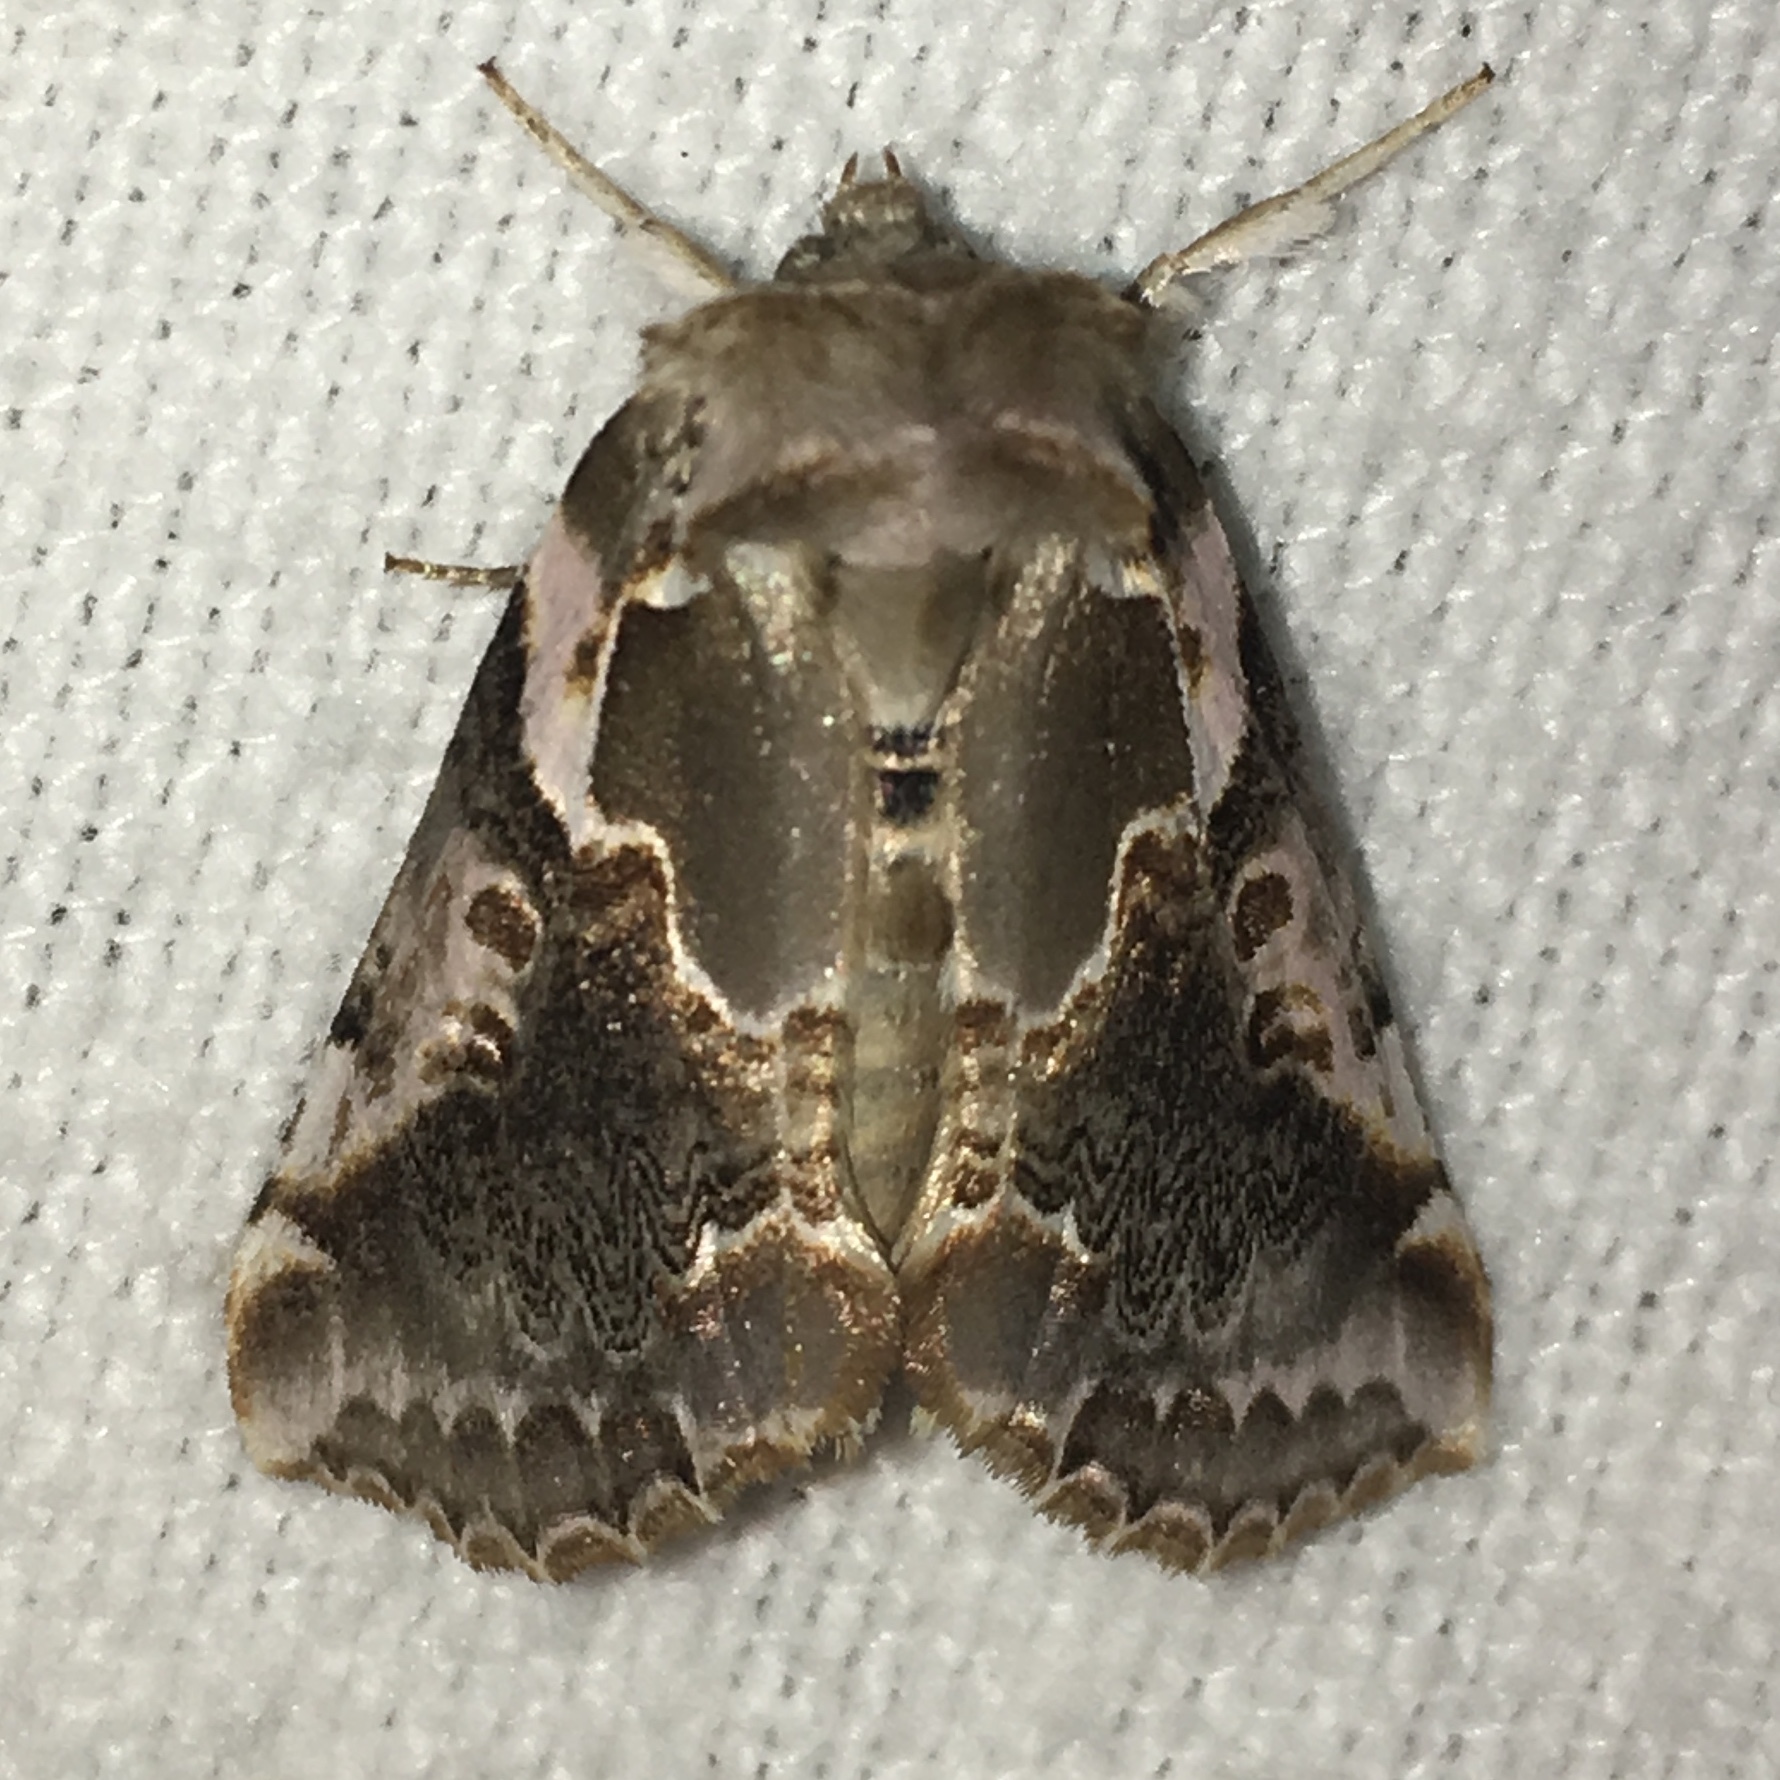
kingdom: Animalia
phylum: Arthropoda
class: Insecta
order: Lepidoptera
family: Drepanidae
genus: Habrosyne
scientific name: Habrosyne gloriosa
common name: Glorious habrosyne moth
